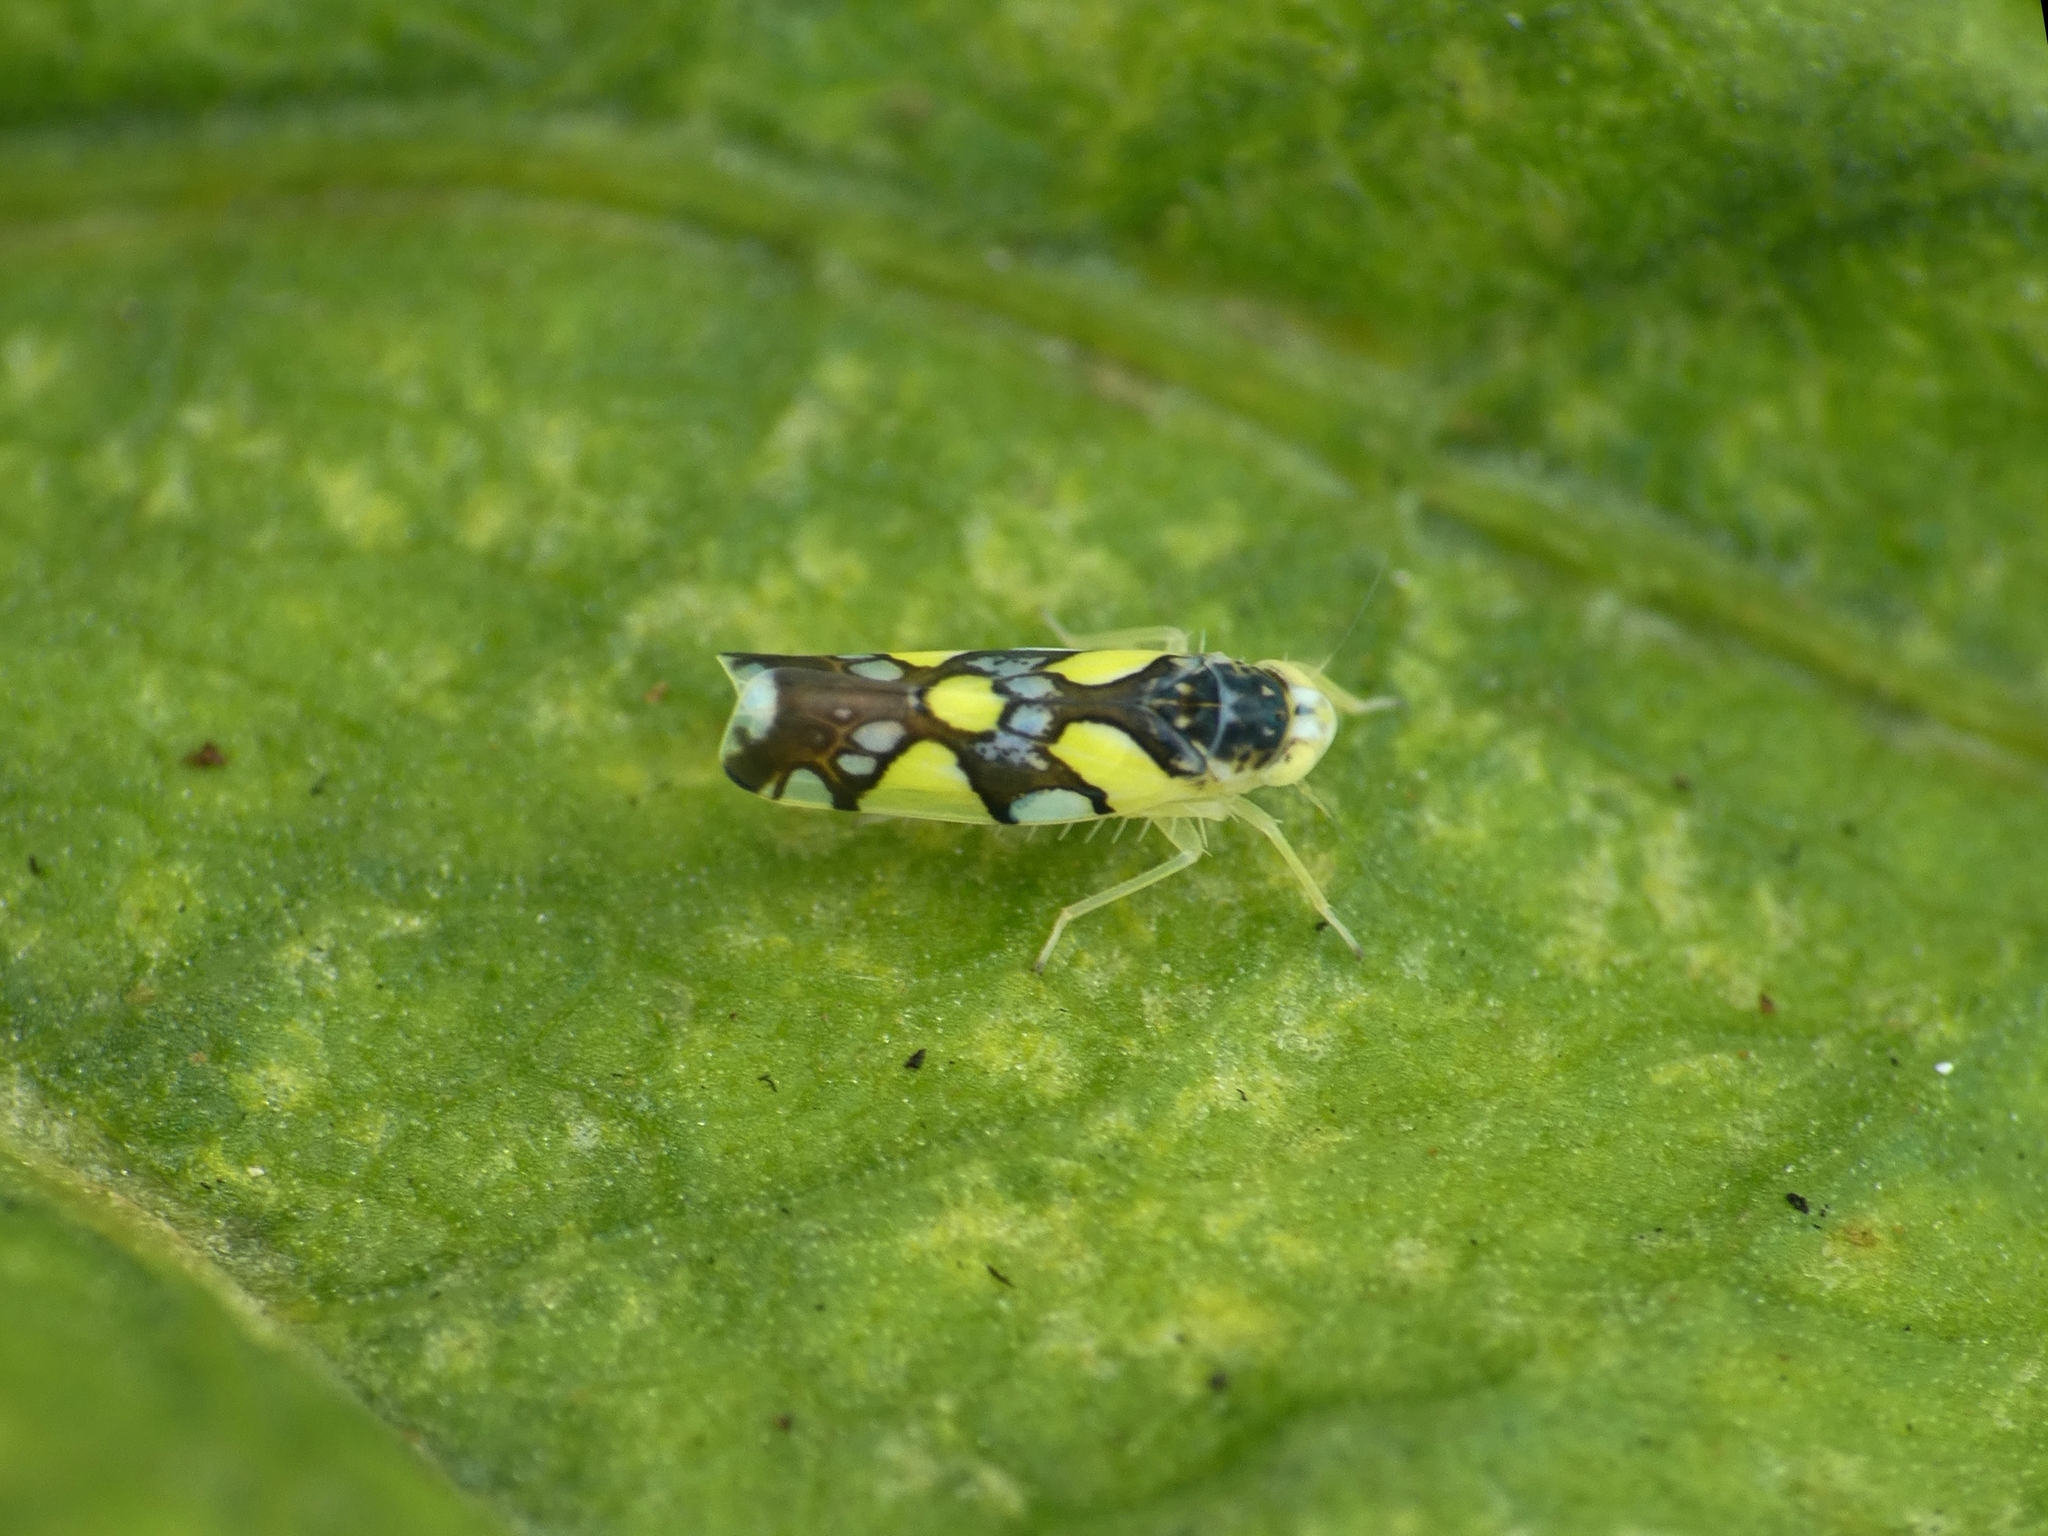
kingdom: Animalia
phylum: Arthropoda
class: Insecta
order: Hemiptera
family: Cicadellidae
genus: Protalebrella
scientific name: Protalebrella brasiliensis
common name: Brasilian leafhopper
